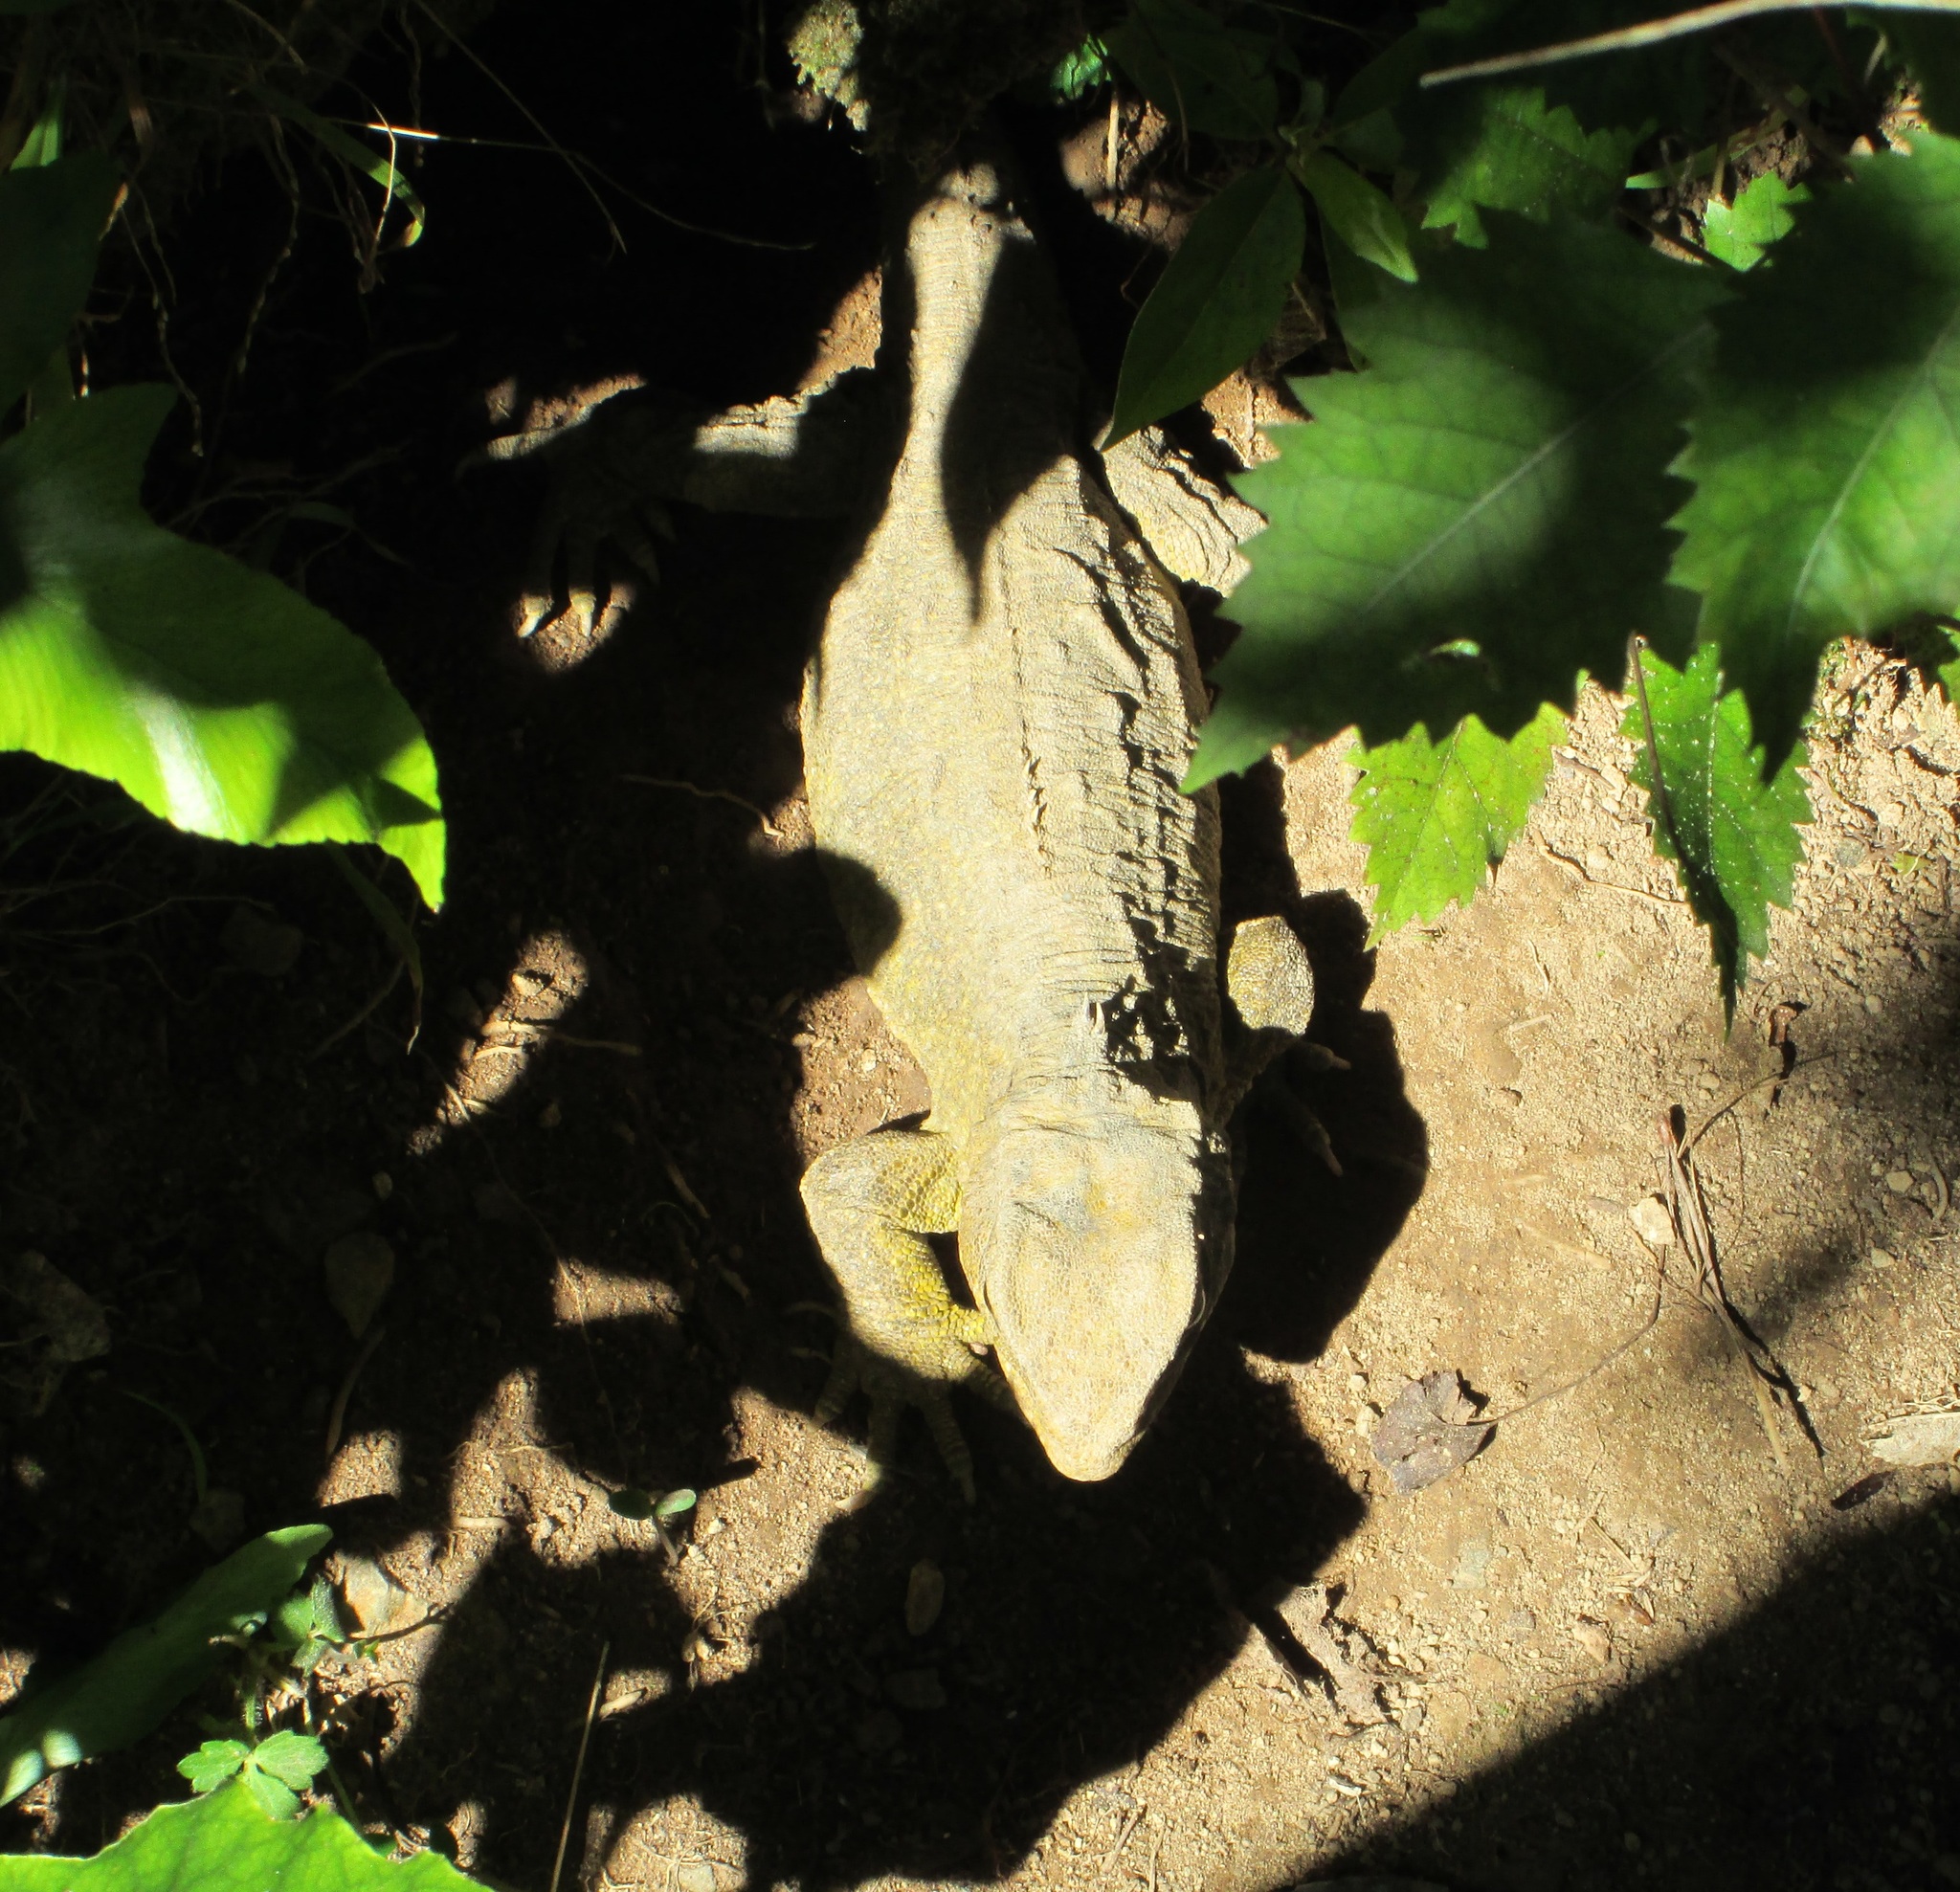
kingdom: Animalia
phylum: Chordata
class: Sphenodontia
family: Sphenodontidae
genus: Sphenodon
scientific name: Sphenodon punctatus
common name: Tuatara
